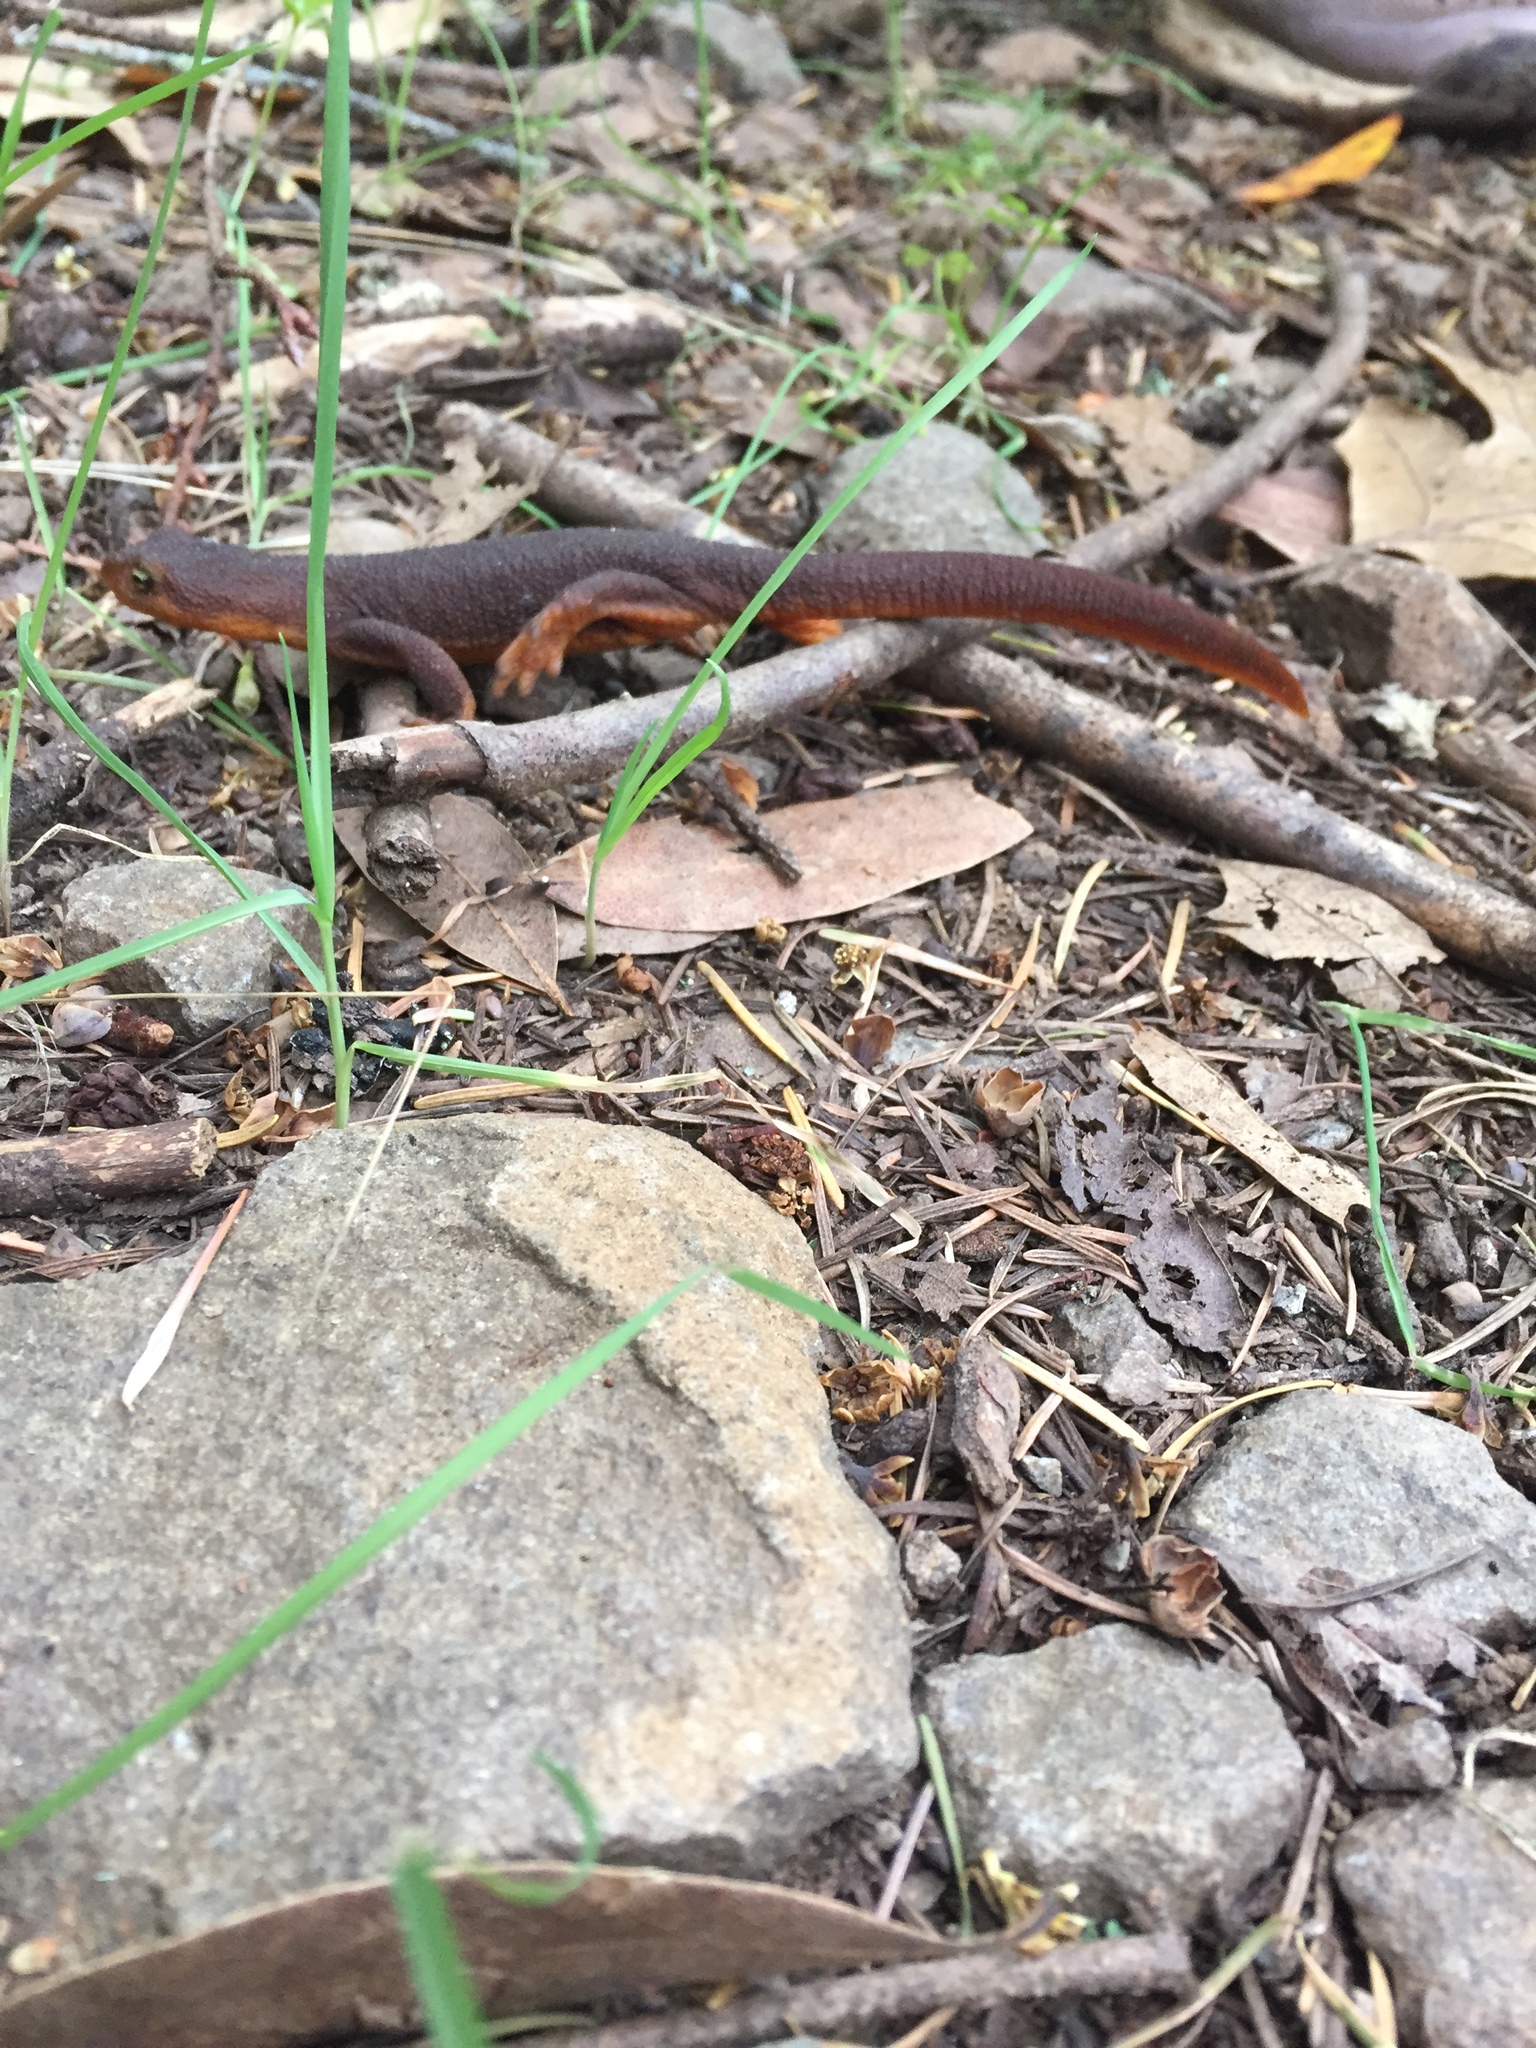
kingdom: Animalia
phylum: Chordata
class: Amphibia
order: Caudata
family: Salamandridae
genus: Taricha
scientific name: Taricha torosa
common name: California newt
